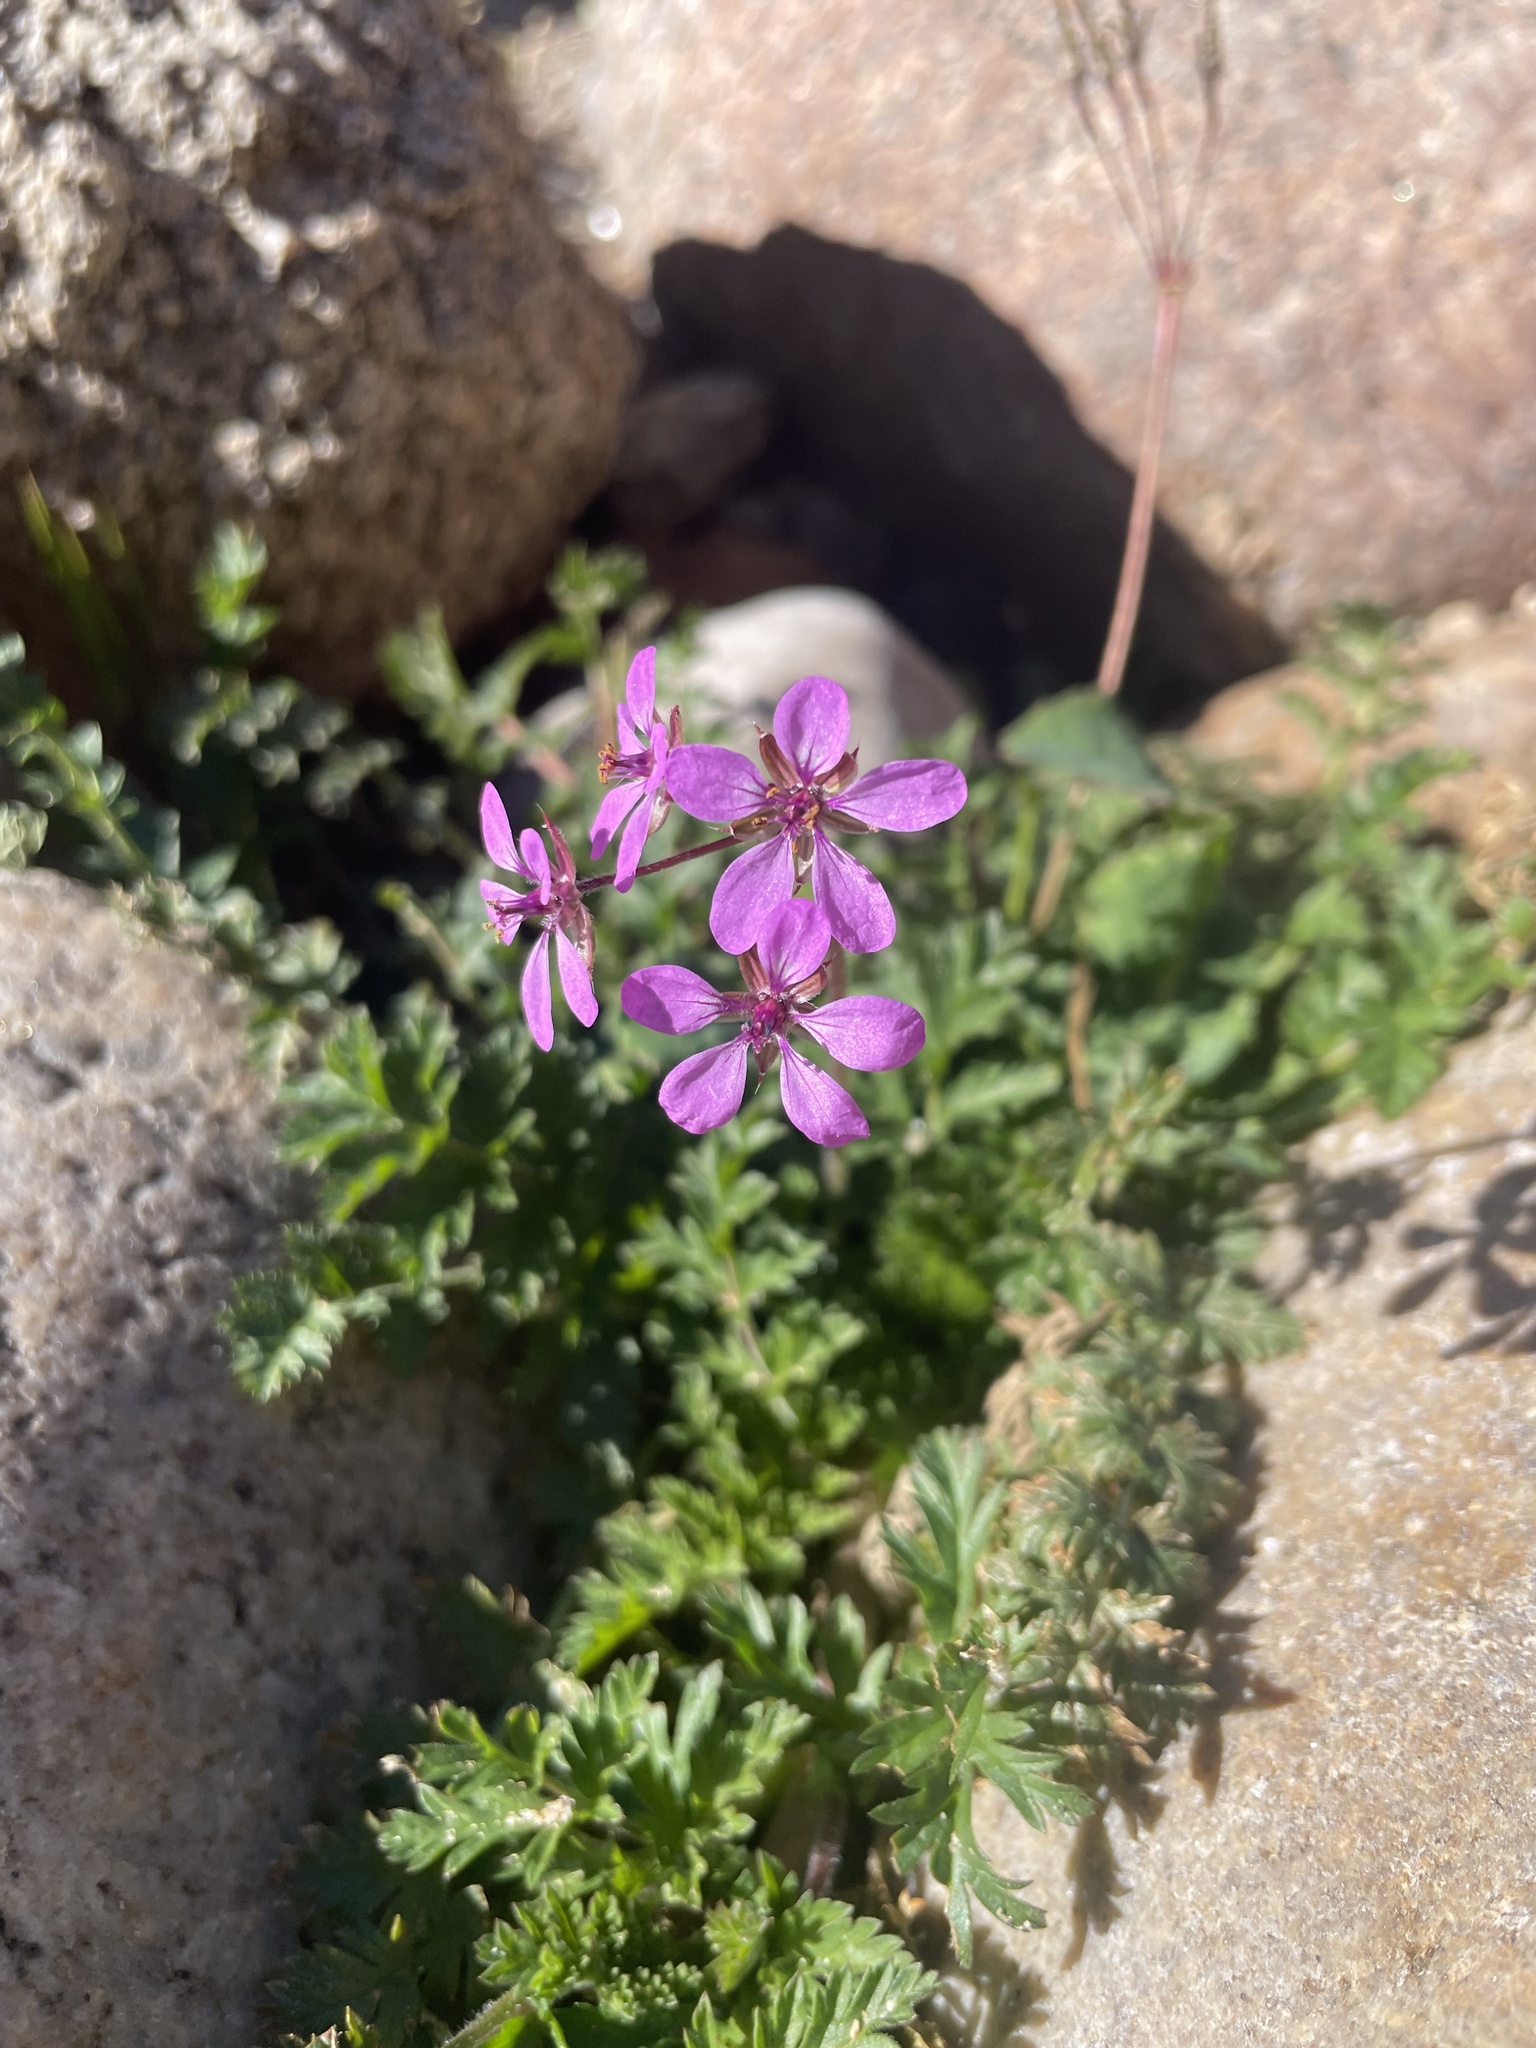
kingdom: Plantae
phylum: Tracheophyta
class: Magnoliopsida
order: Geraniales
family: Geraniaceae
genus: Erodium
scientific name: Erodium cicutarium
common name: Common stork's-bill
